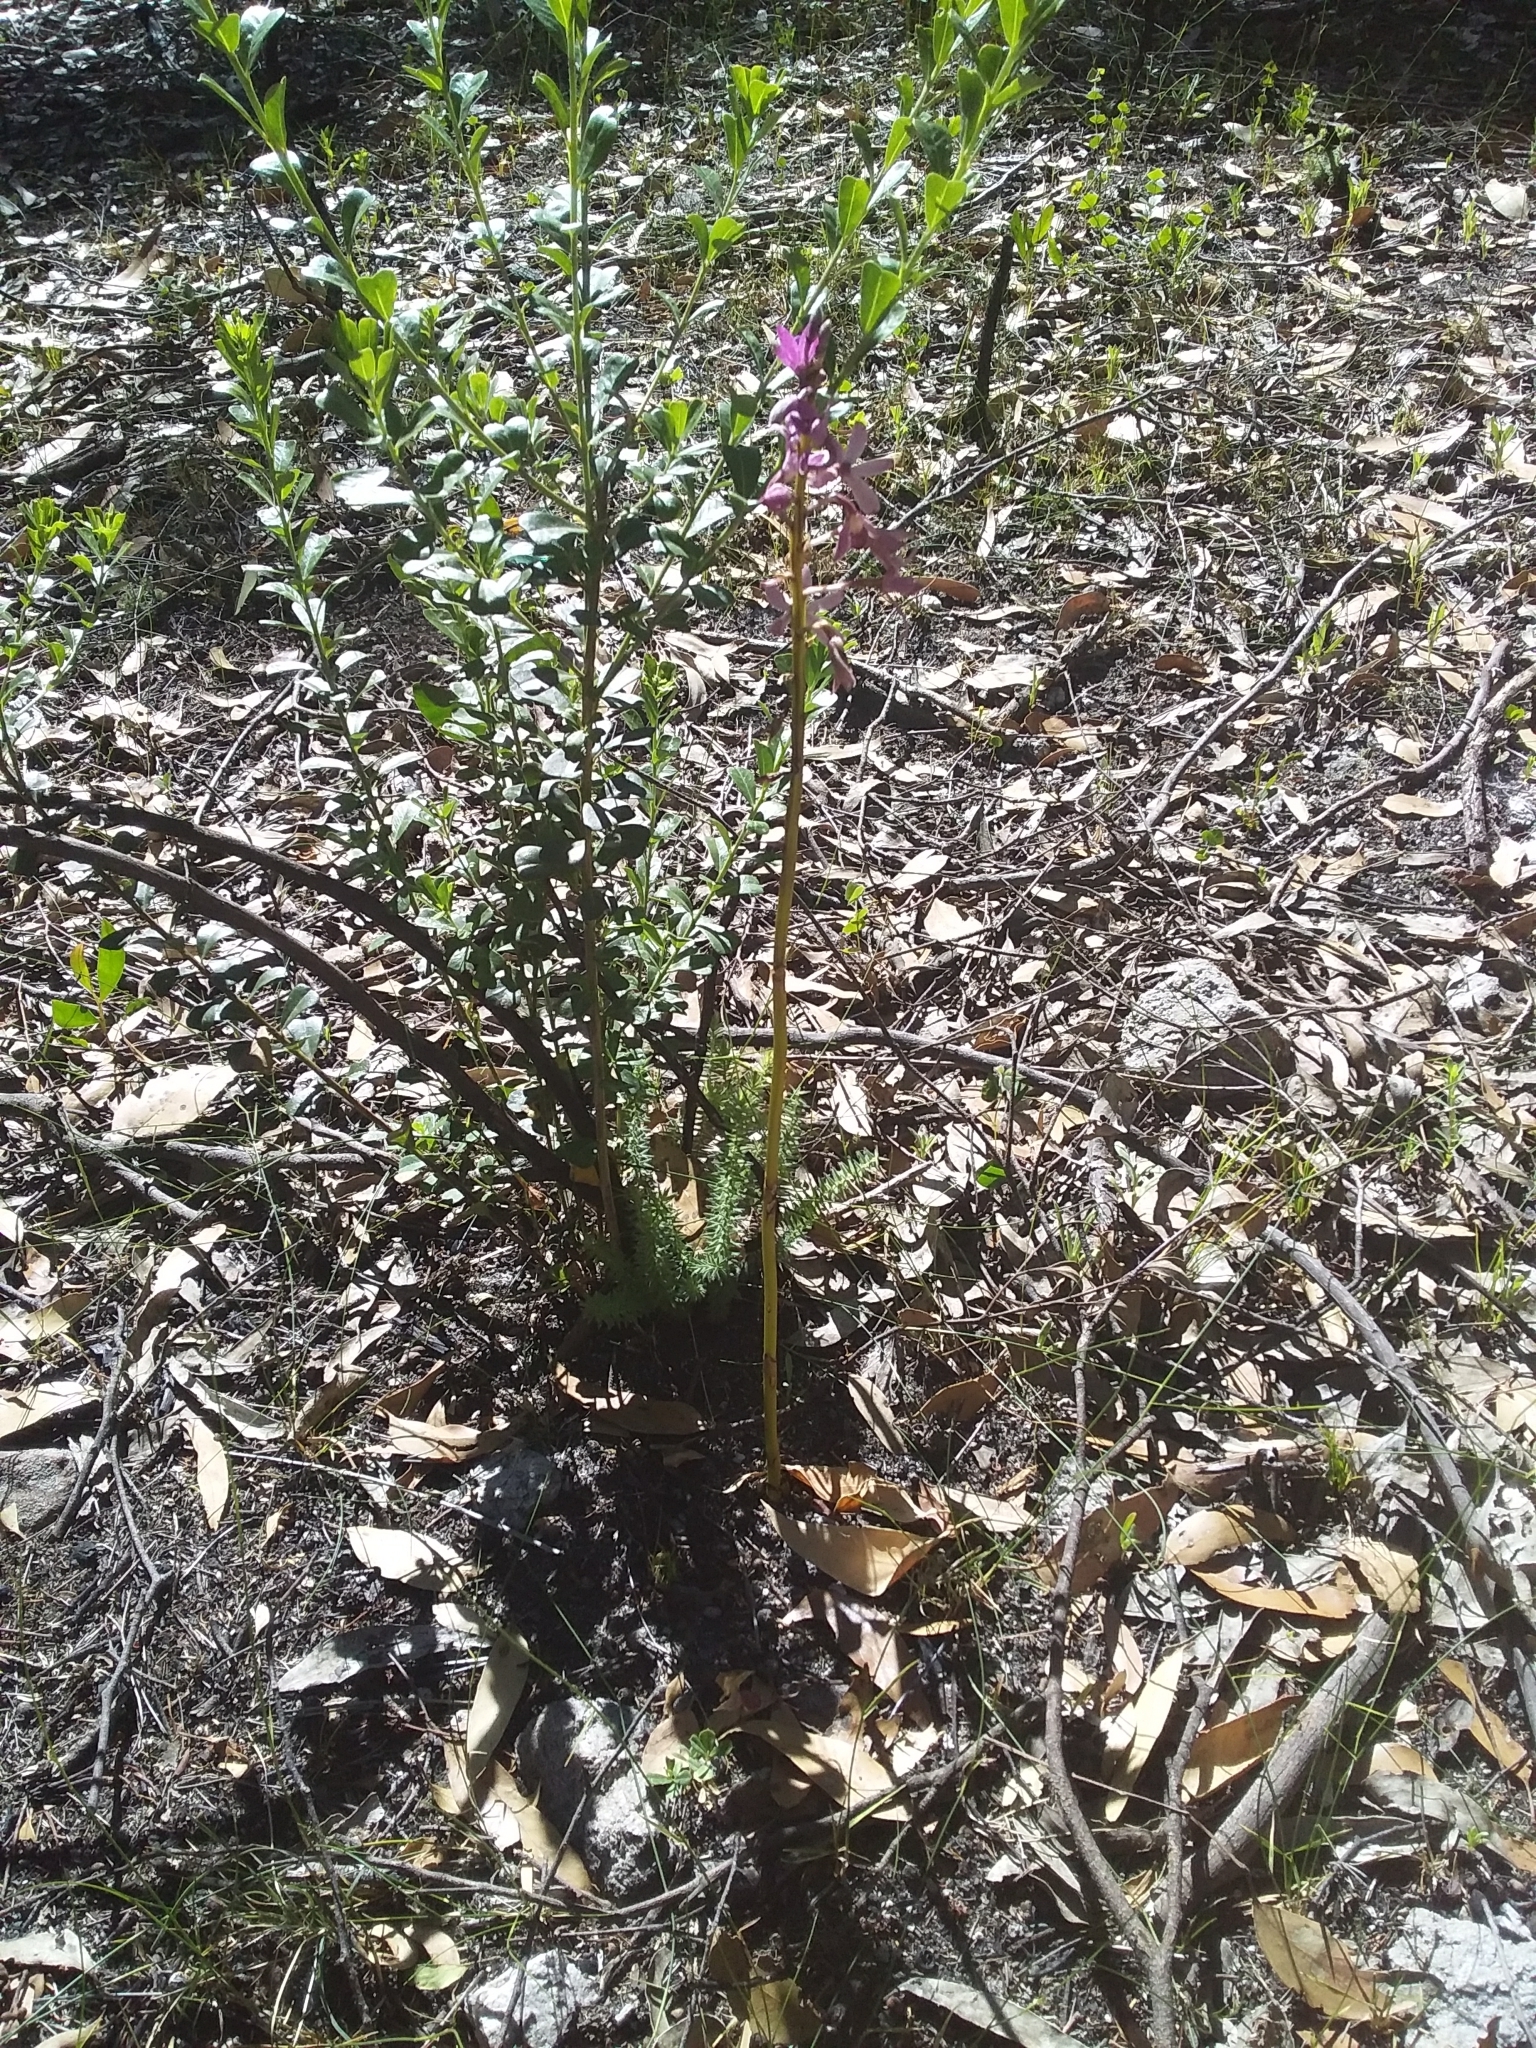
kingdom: Plantae
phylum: Tracheophyta
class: Liliopsida
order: Asparagales
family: Orchidaceae
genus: Dipodium
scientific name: Dipodium roseum
